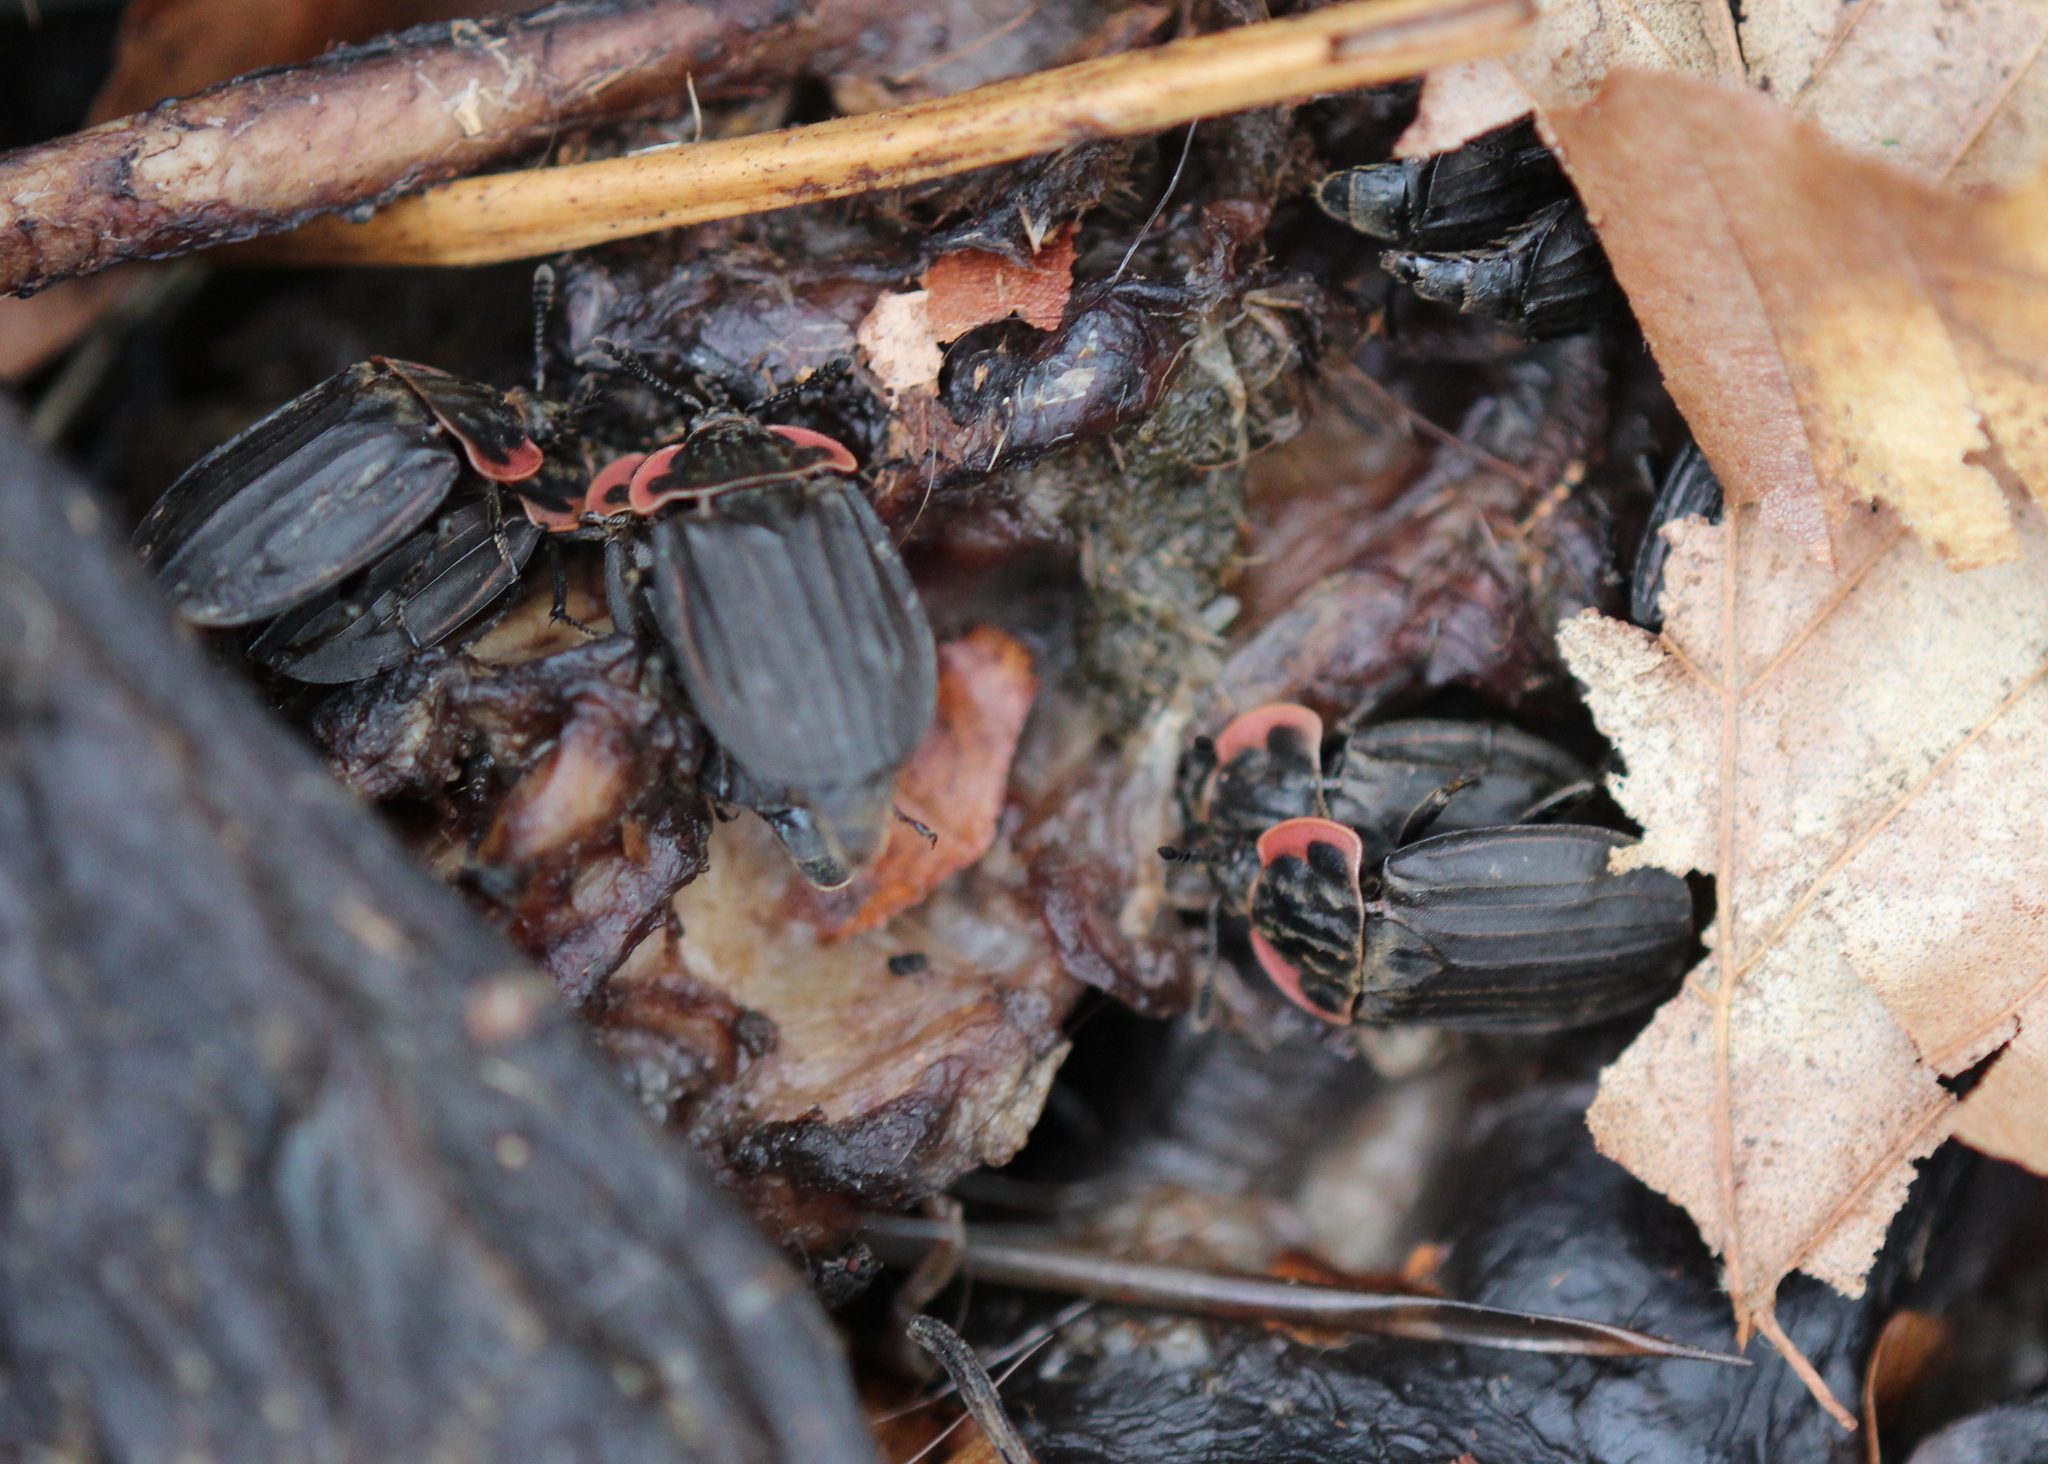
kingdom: Animalia
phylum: Arthropoda
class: Insecta
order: Coleoptera
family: Staphylinidae
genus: Oiceoptoma
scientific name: Oiceoptoma noveboracense
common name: Margined carrion beetle
